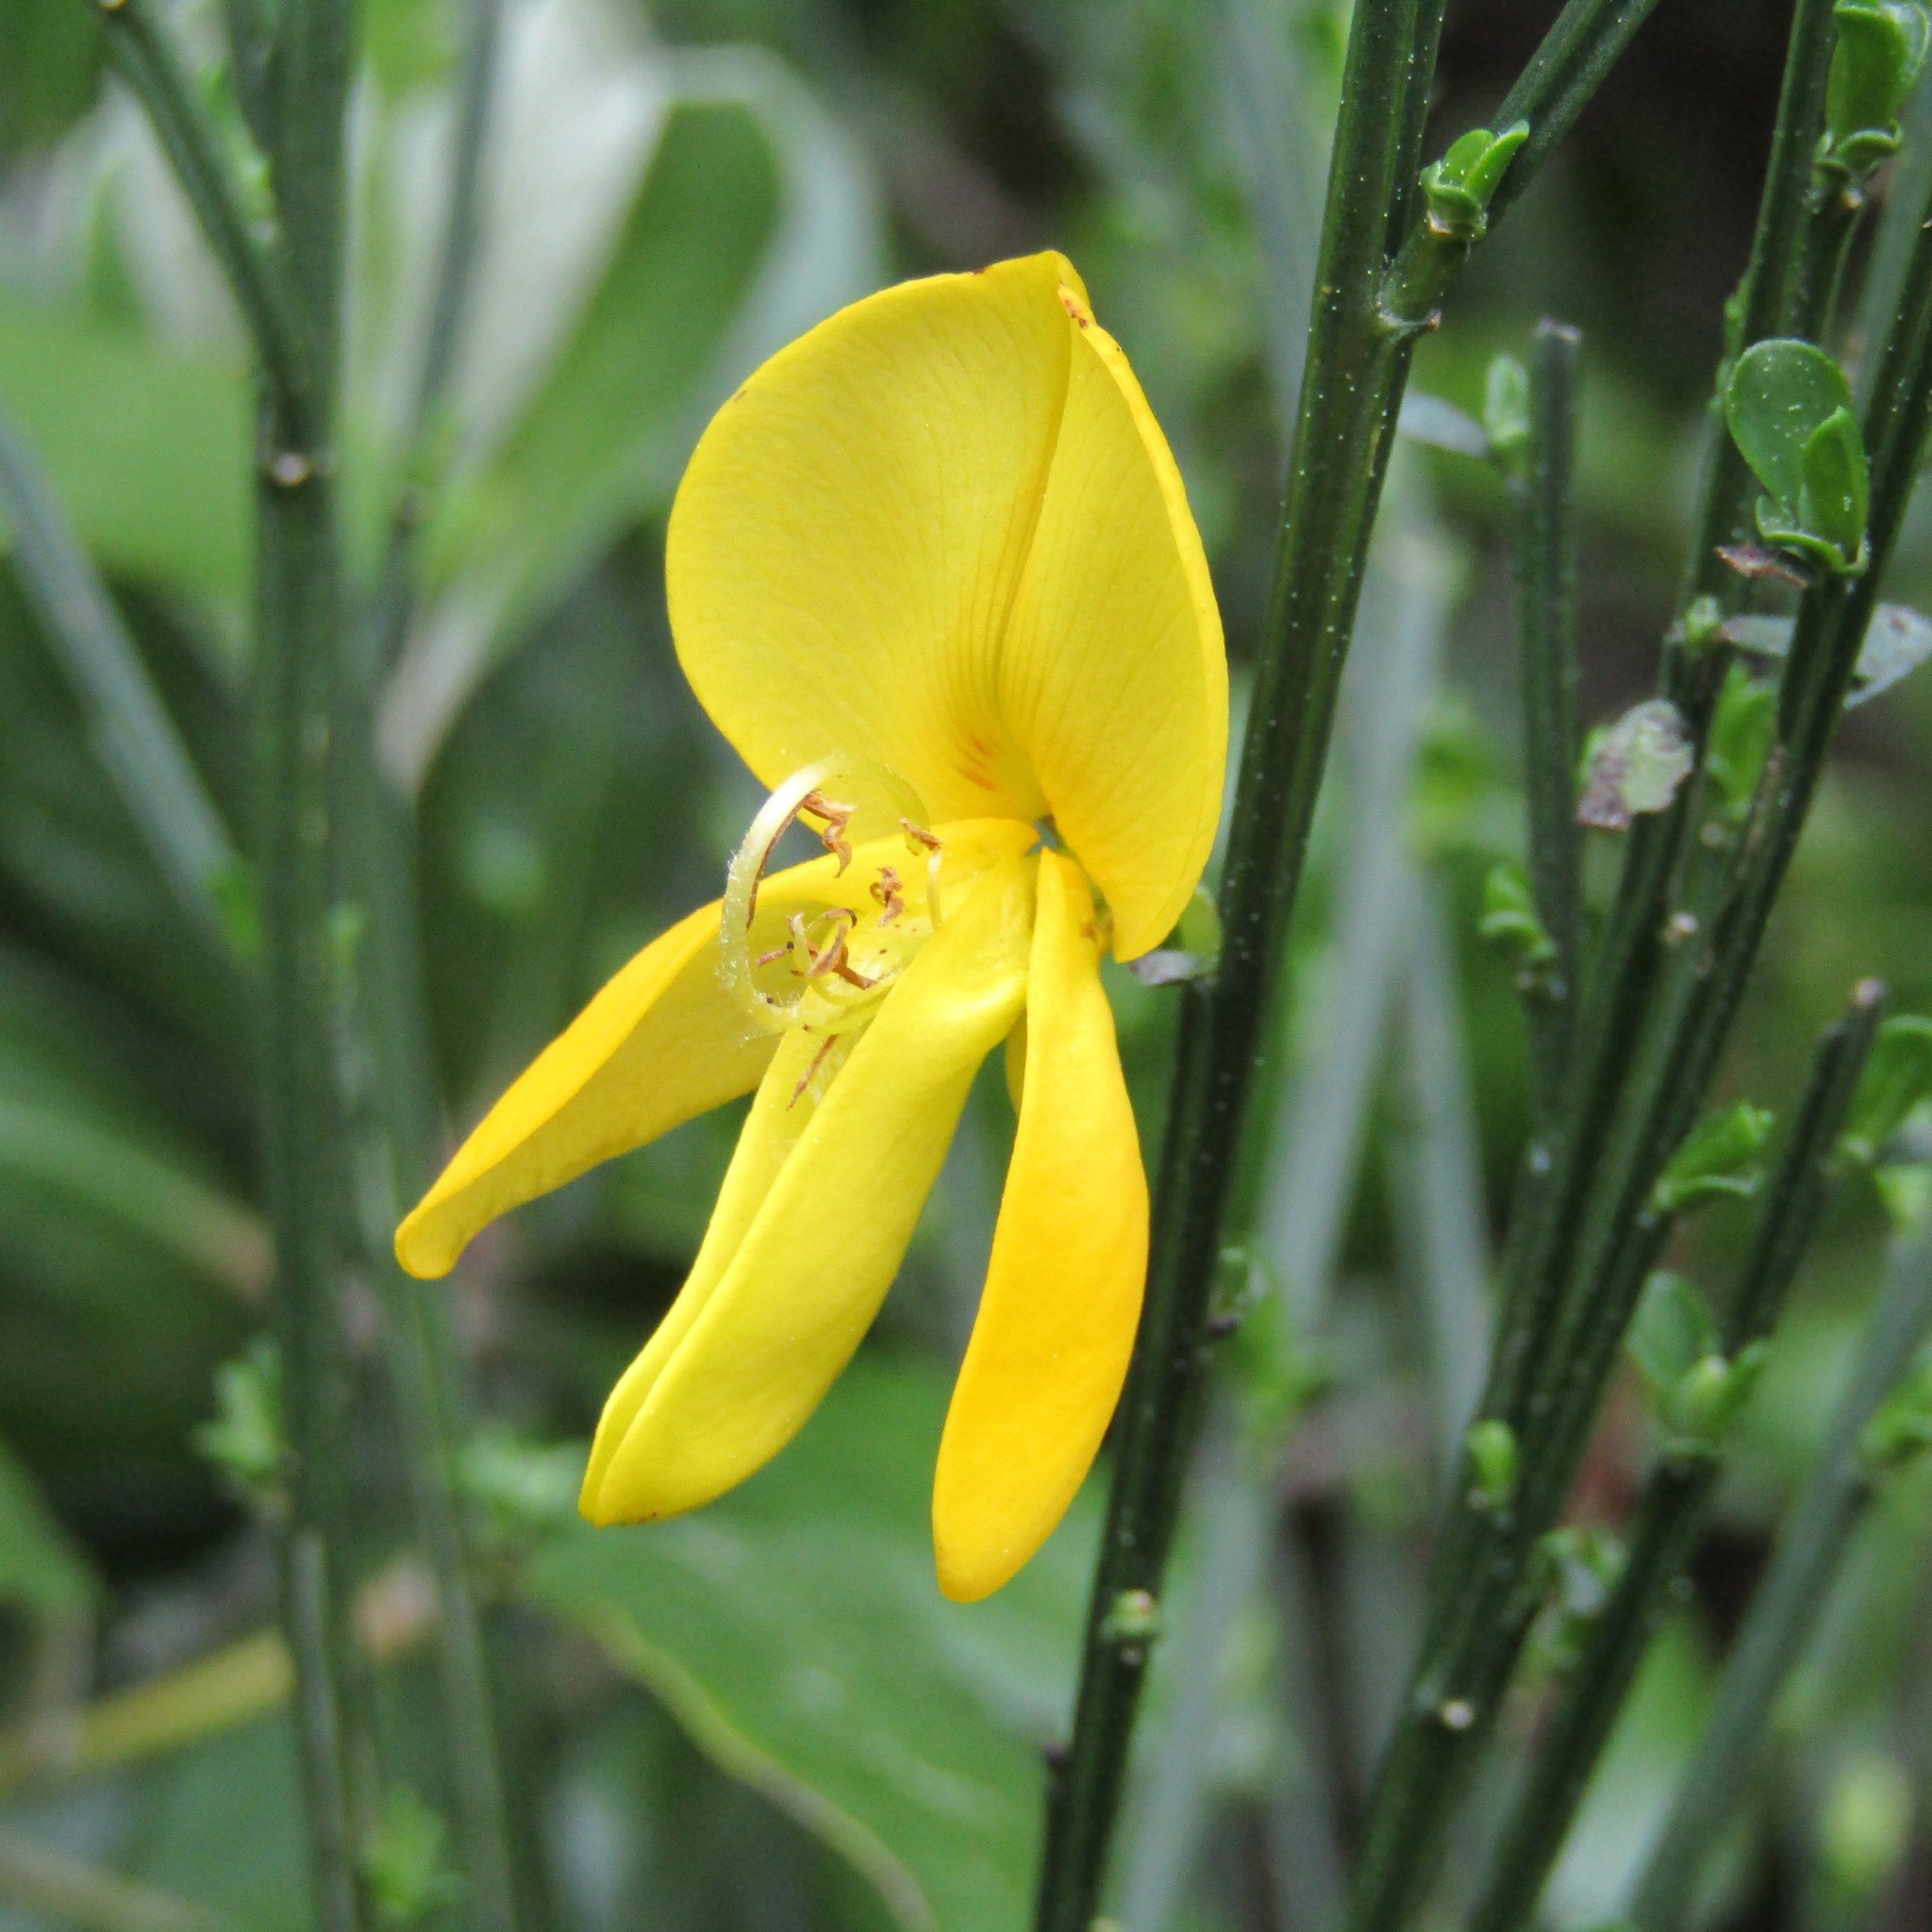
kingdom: Plantae
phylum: Tracheophyta
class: Magnoliopsida
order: Fabales
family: Fabaceae
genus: Cytisus
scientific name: Cytisus scoparius
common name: Scotch broom
